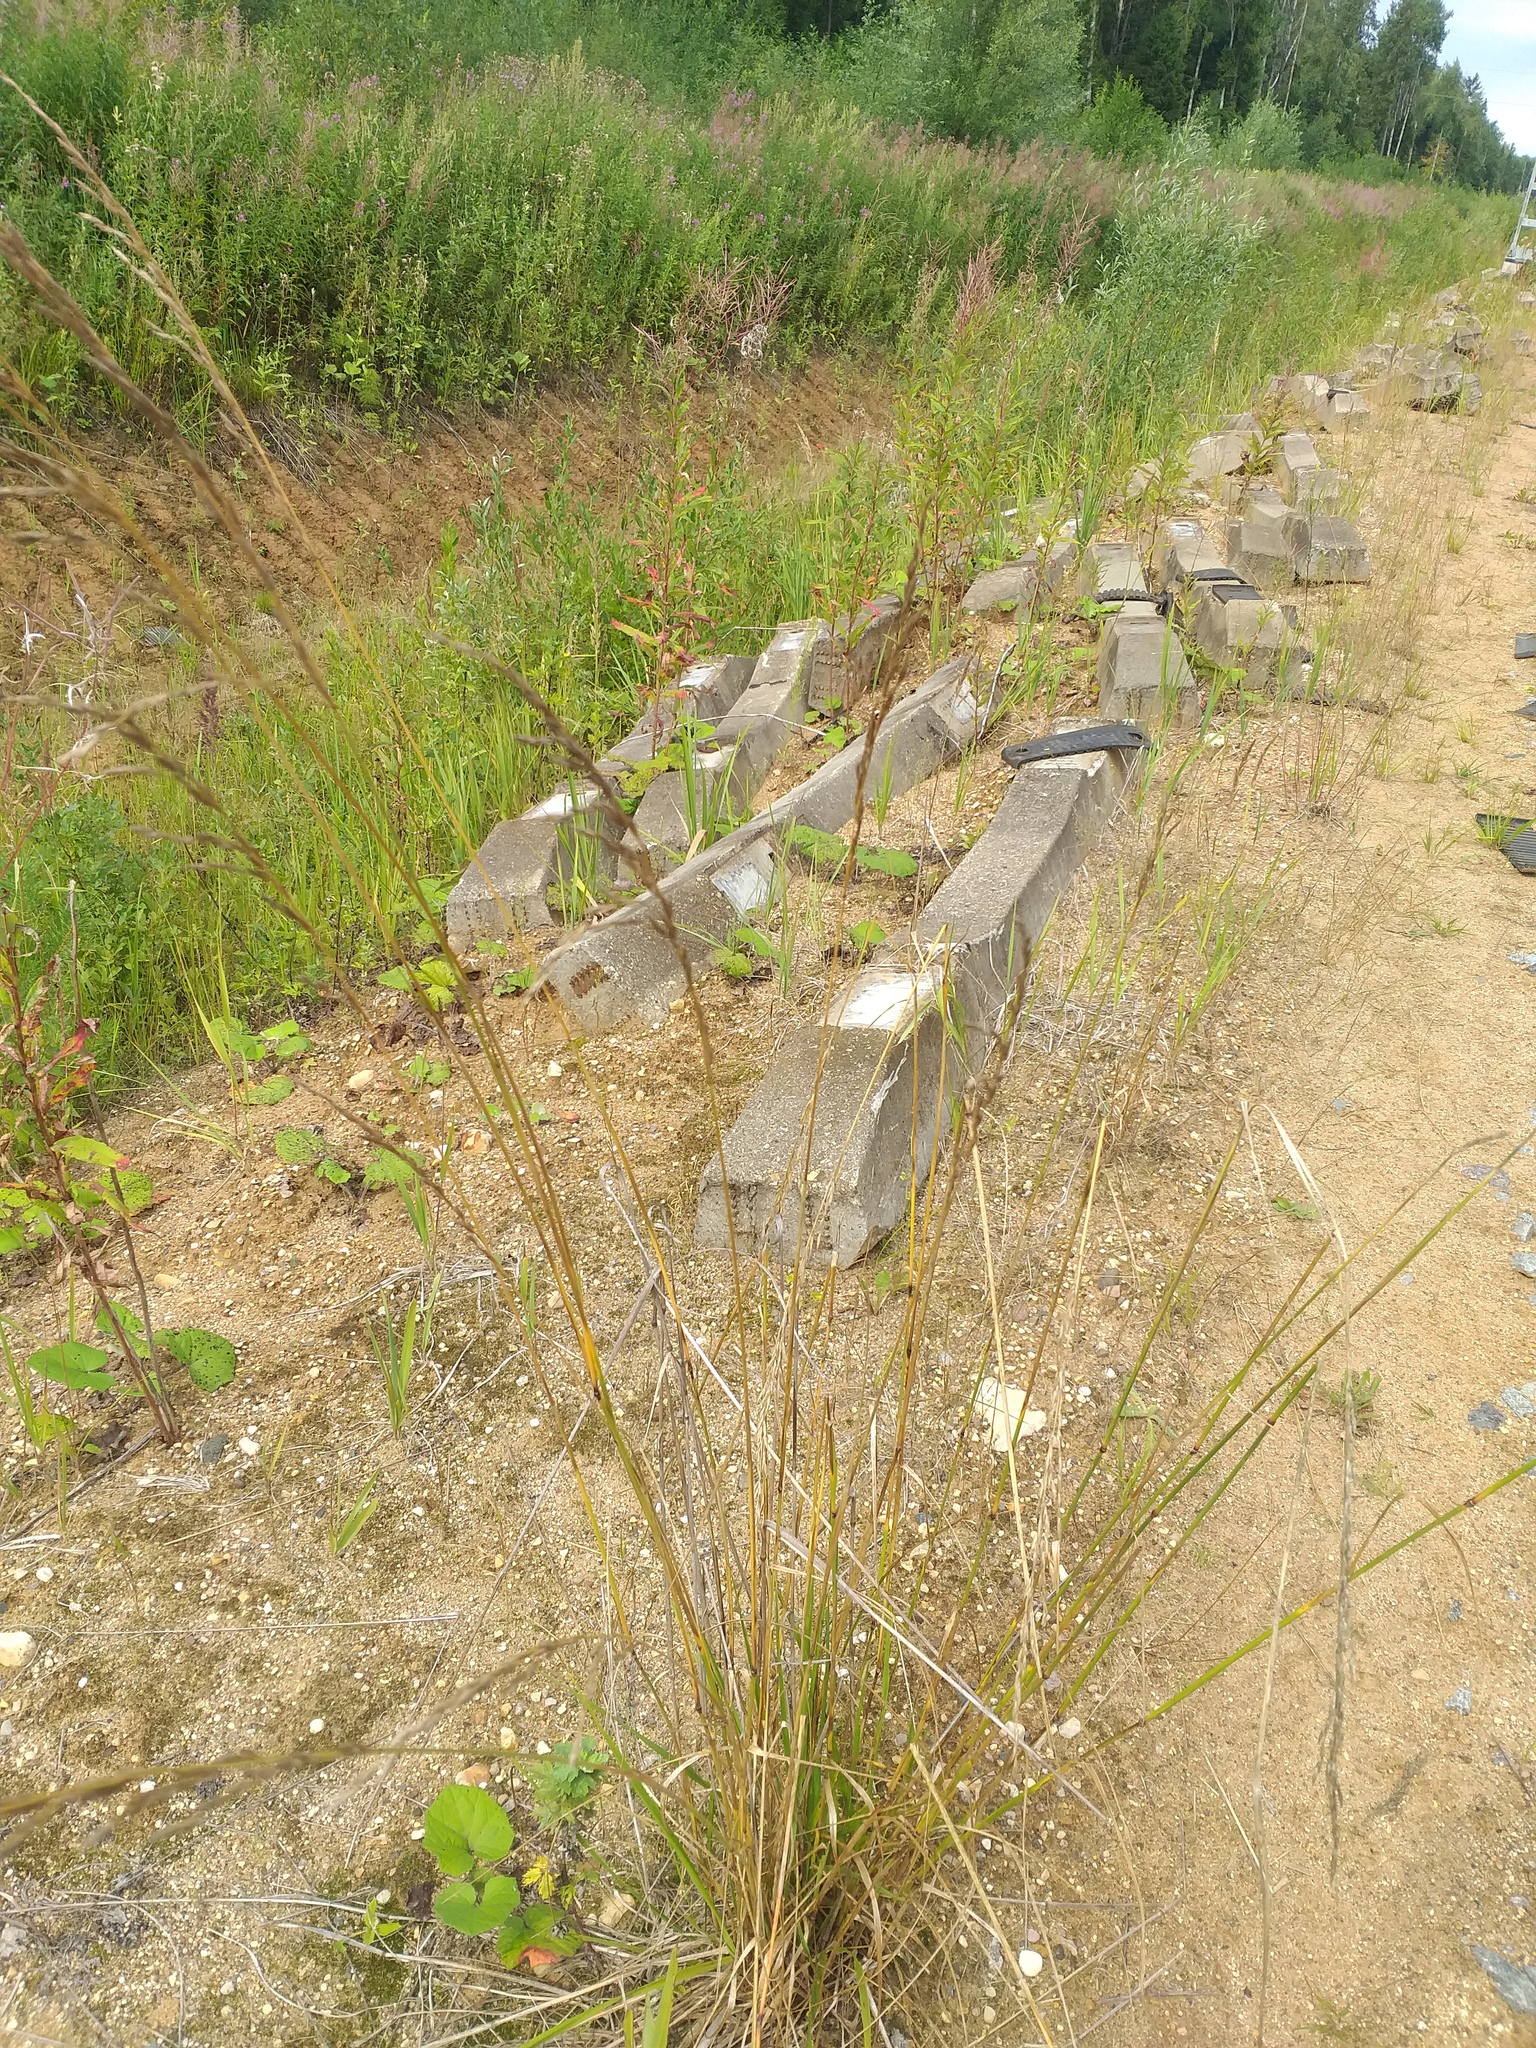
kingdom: Plantae
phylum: Tracheophyta
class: Liliopsida
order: Poales
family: Poaceae
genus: Lolium
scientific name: Lolium arundinaceum
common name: Reed fescue
